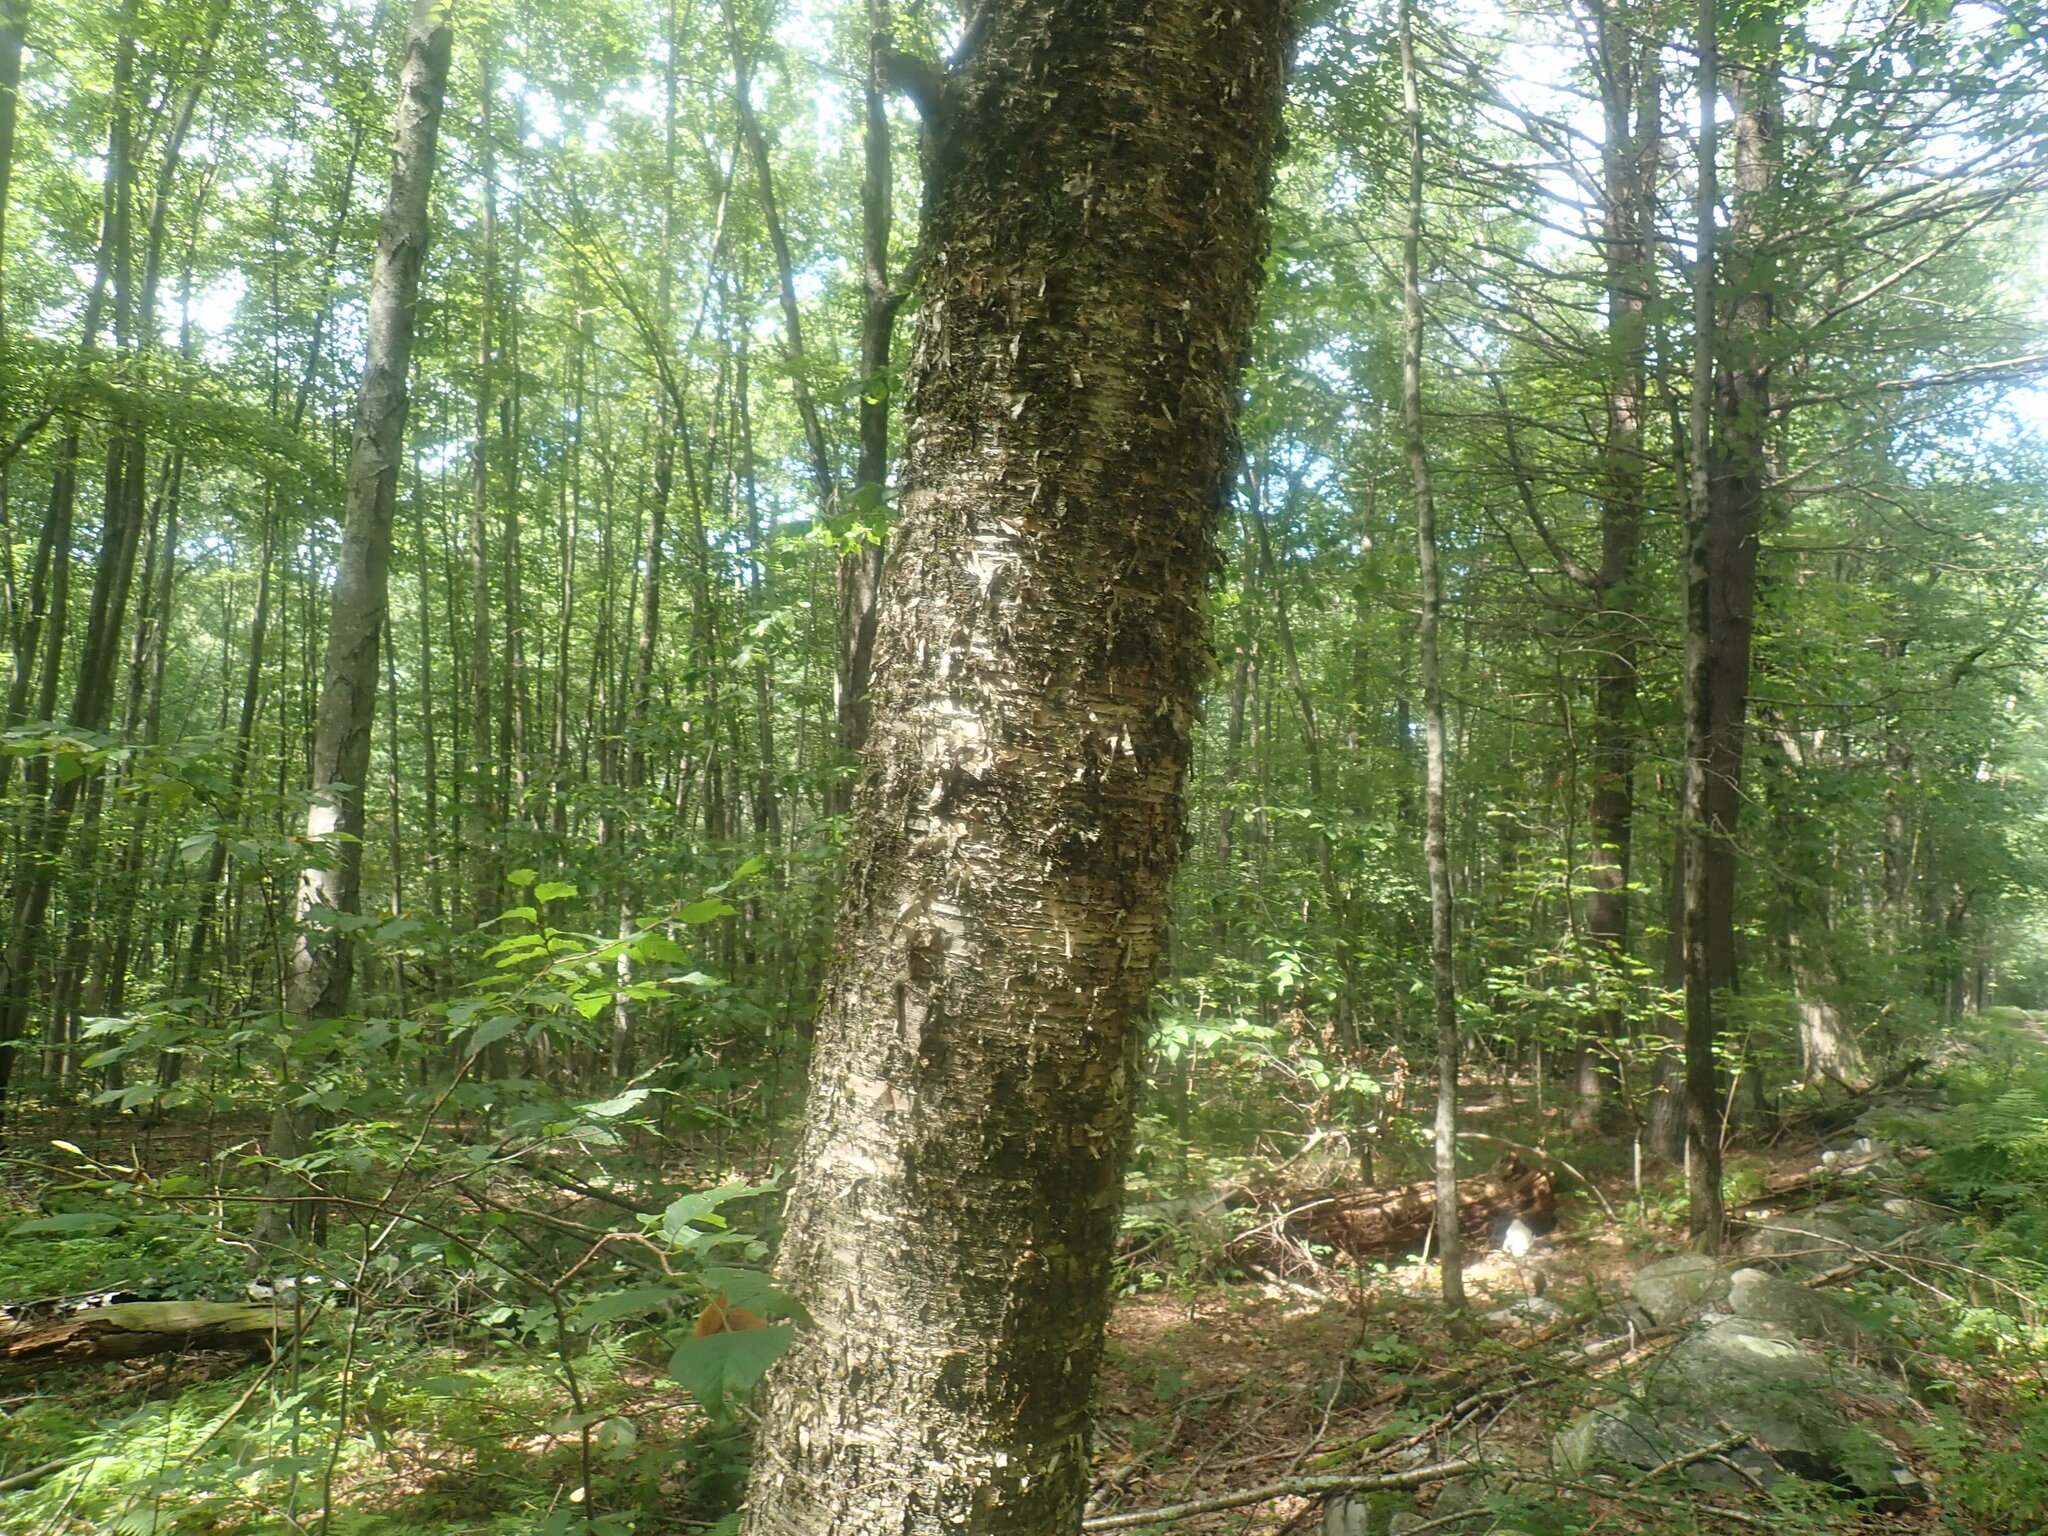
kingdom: Plantae
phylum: Tracheophyta
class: Magnoliopsida
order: Fagales
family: Betulaceae
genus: Betula
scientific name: Betula alleghaniensis
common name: Yellow birch
